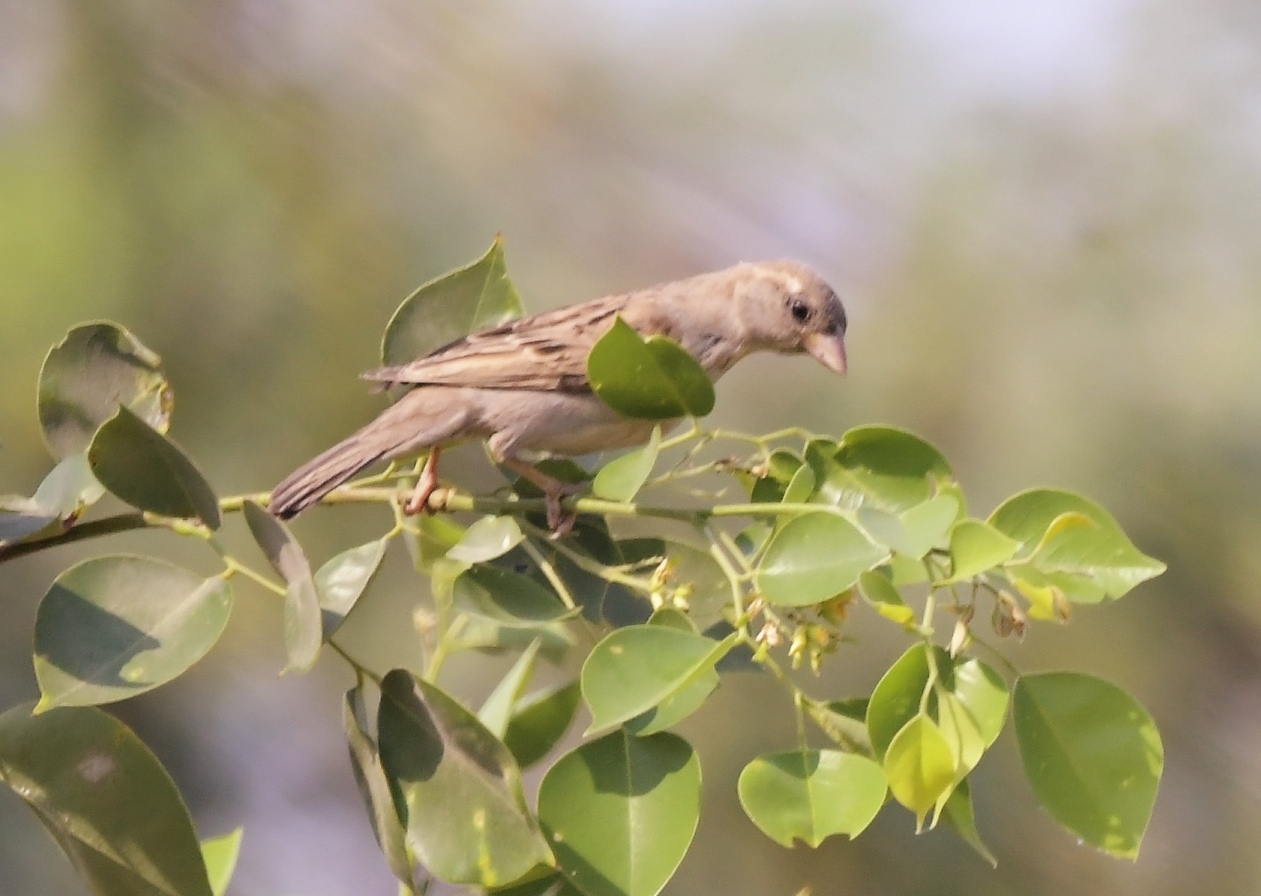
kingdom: Animalia
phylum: Chordata
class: Aves
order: Passeriformes
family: Passeridae
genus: Passer
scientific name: Passer domesticus
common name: House sparrow
